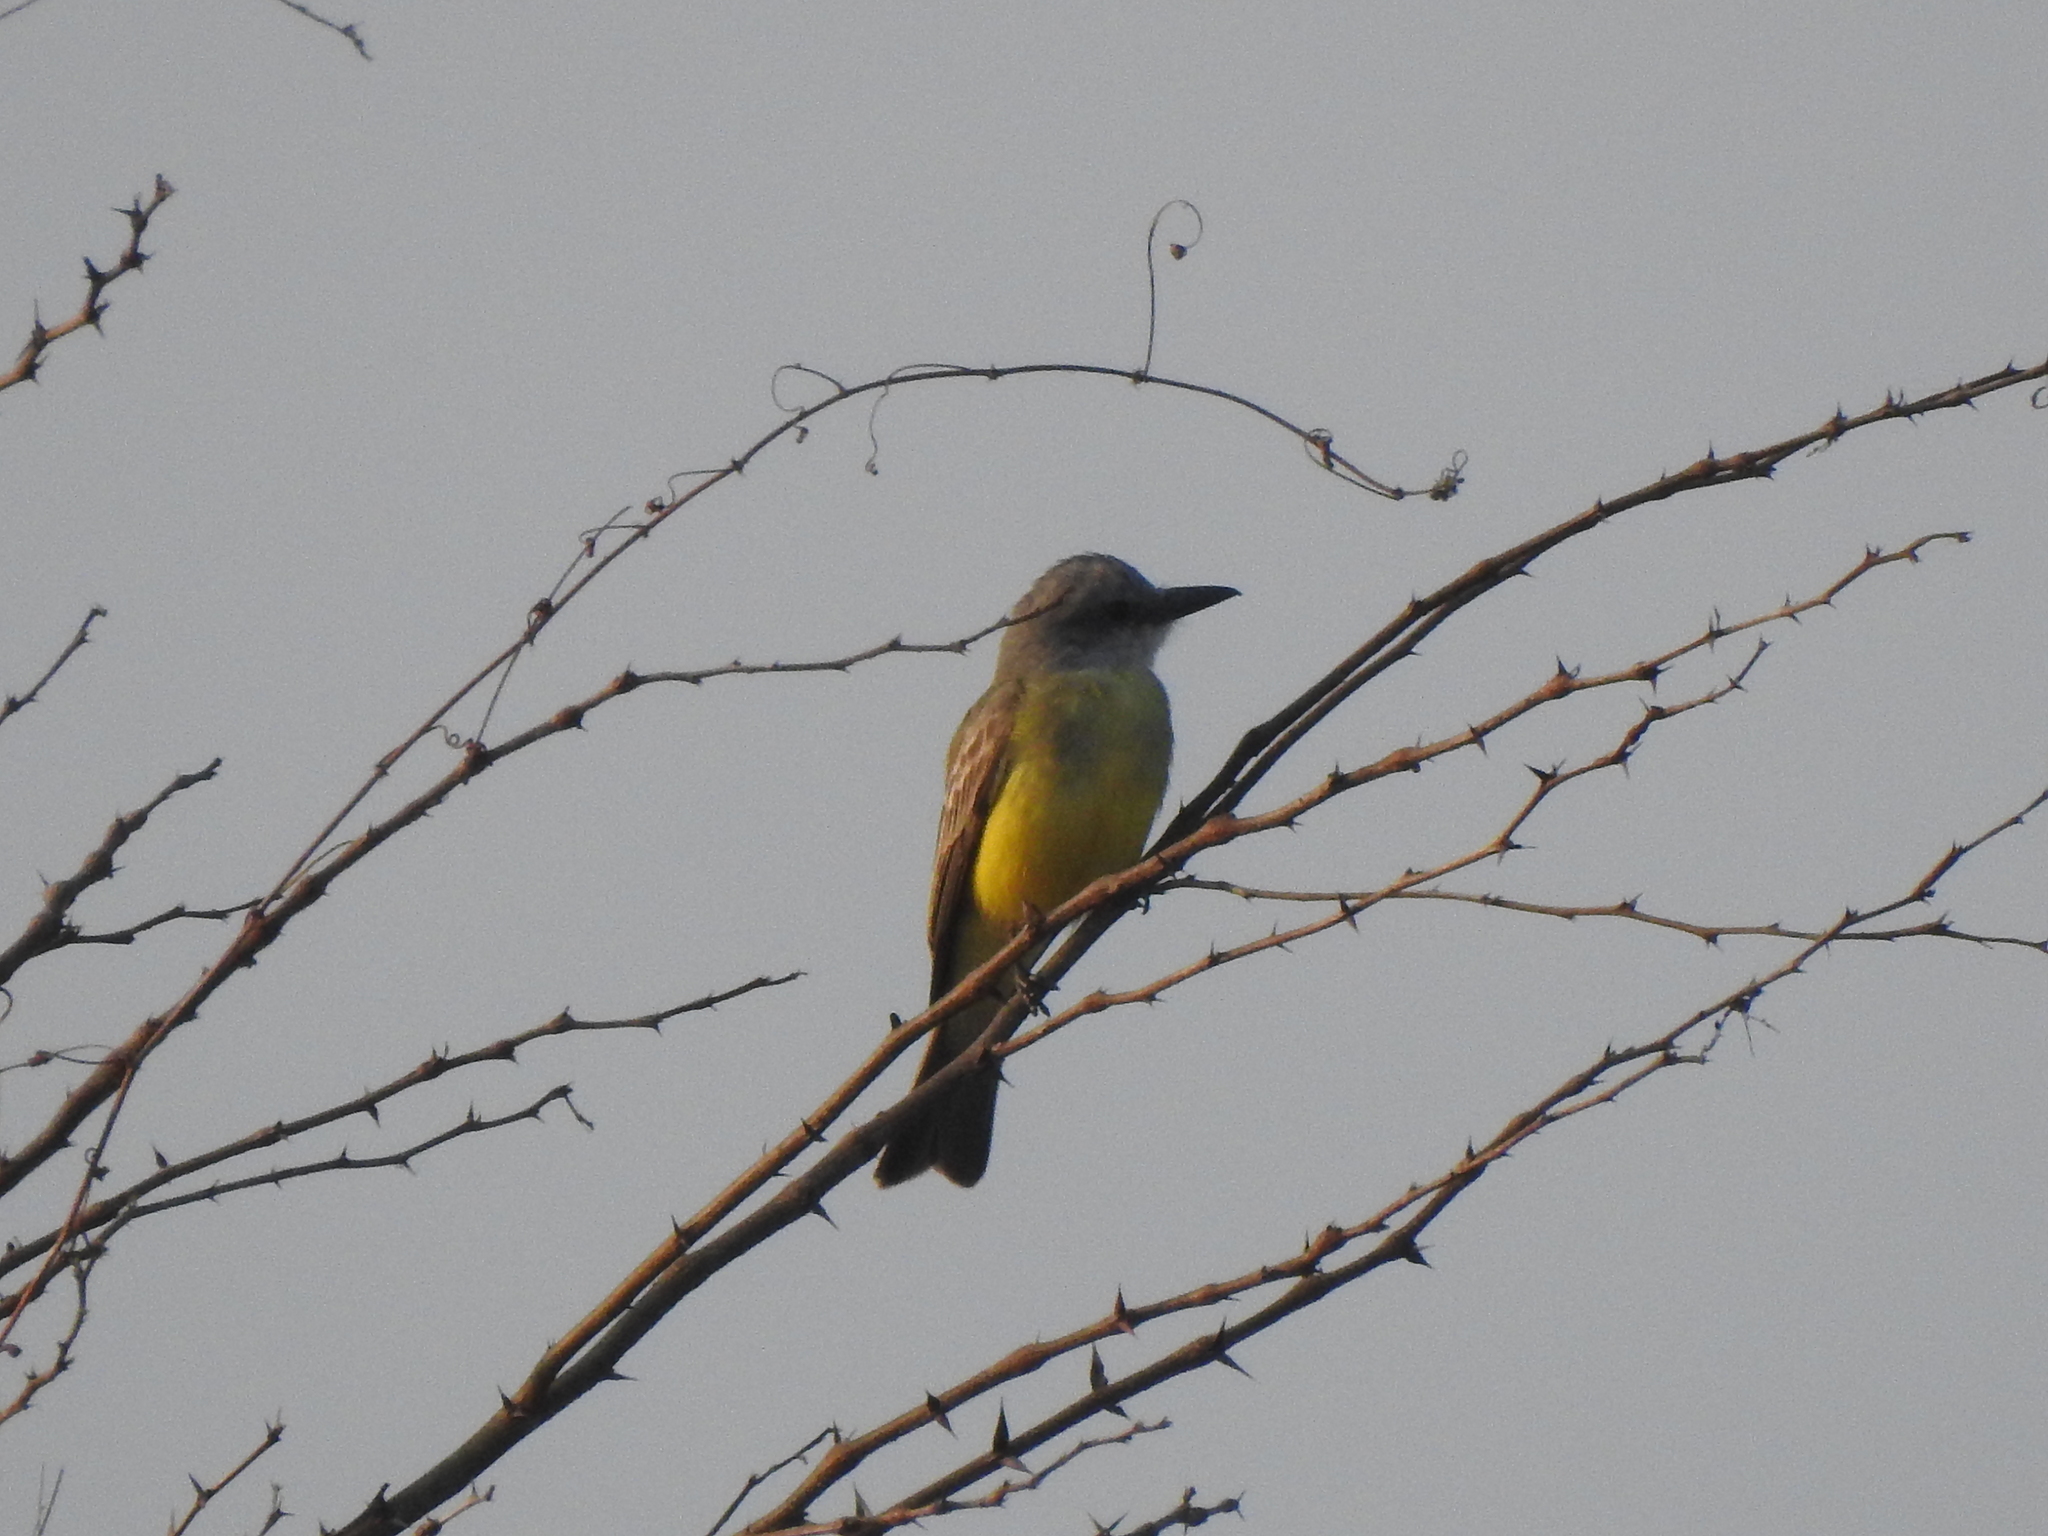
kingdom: Animalia
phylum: Chordata
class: Aves
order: Passeriformes
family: Tyrannidae
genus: Tyrannus
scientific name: Tyrannus melancholicus
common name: Tropical kingbird
